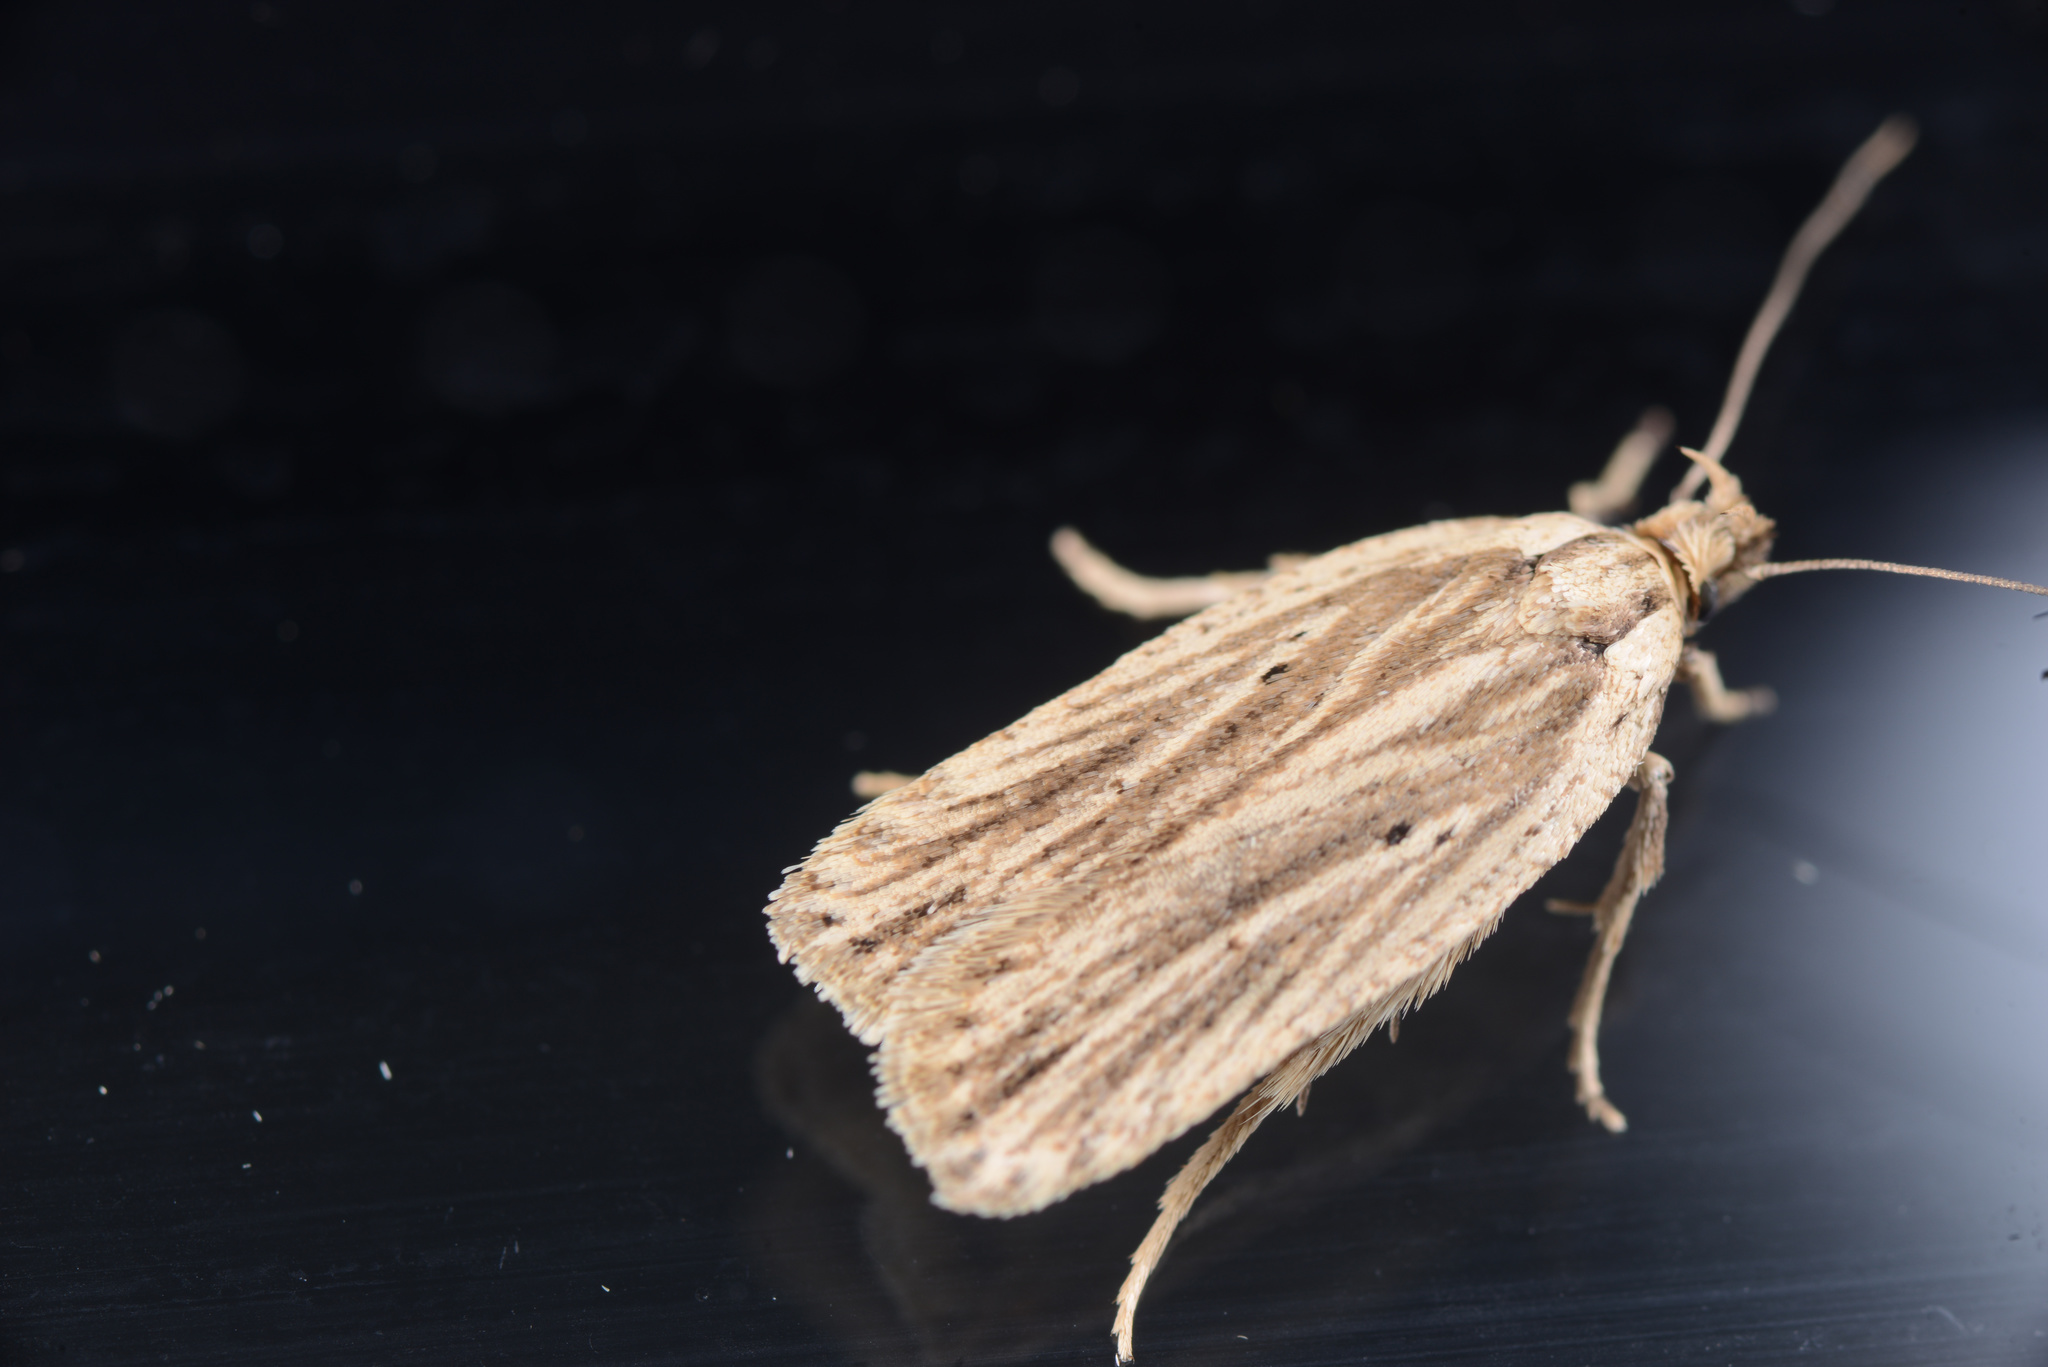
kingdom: Animalia
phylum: Arthropoda
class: Insecta
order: Lepidoptera
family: Depressariidae
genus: Agonopterix
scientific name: Agonopterix
